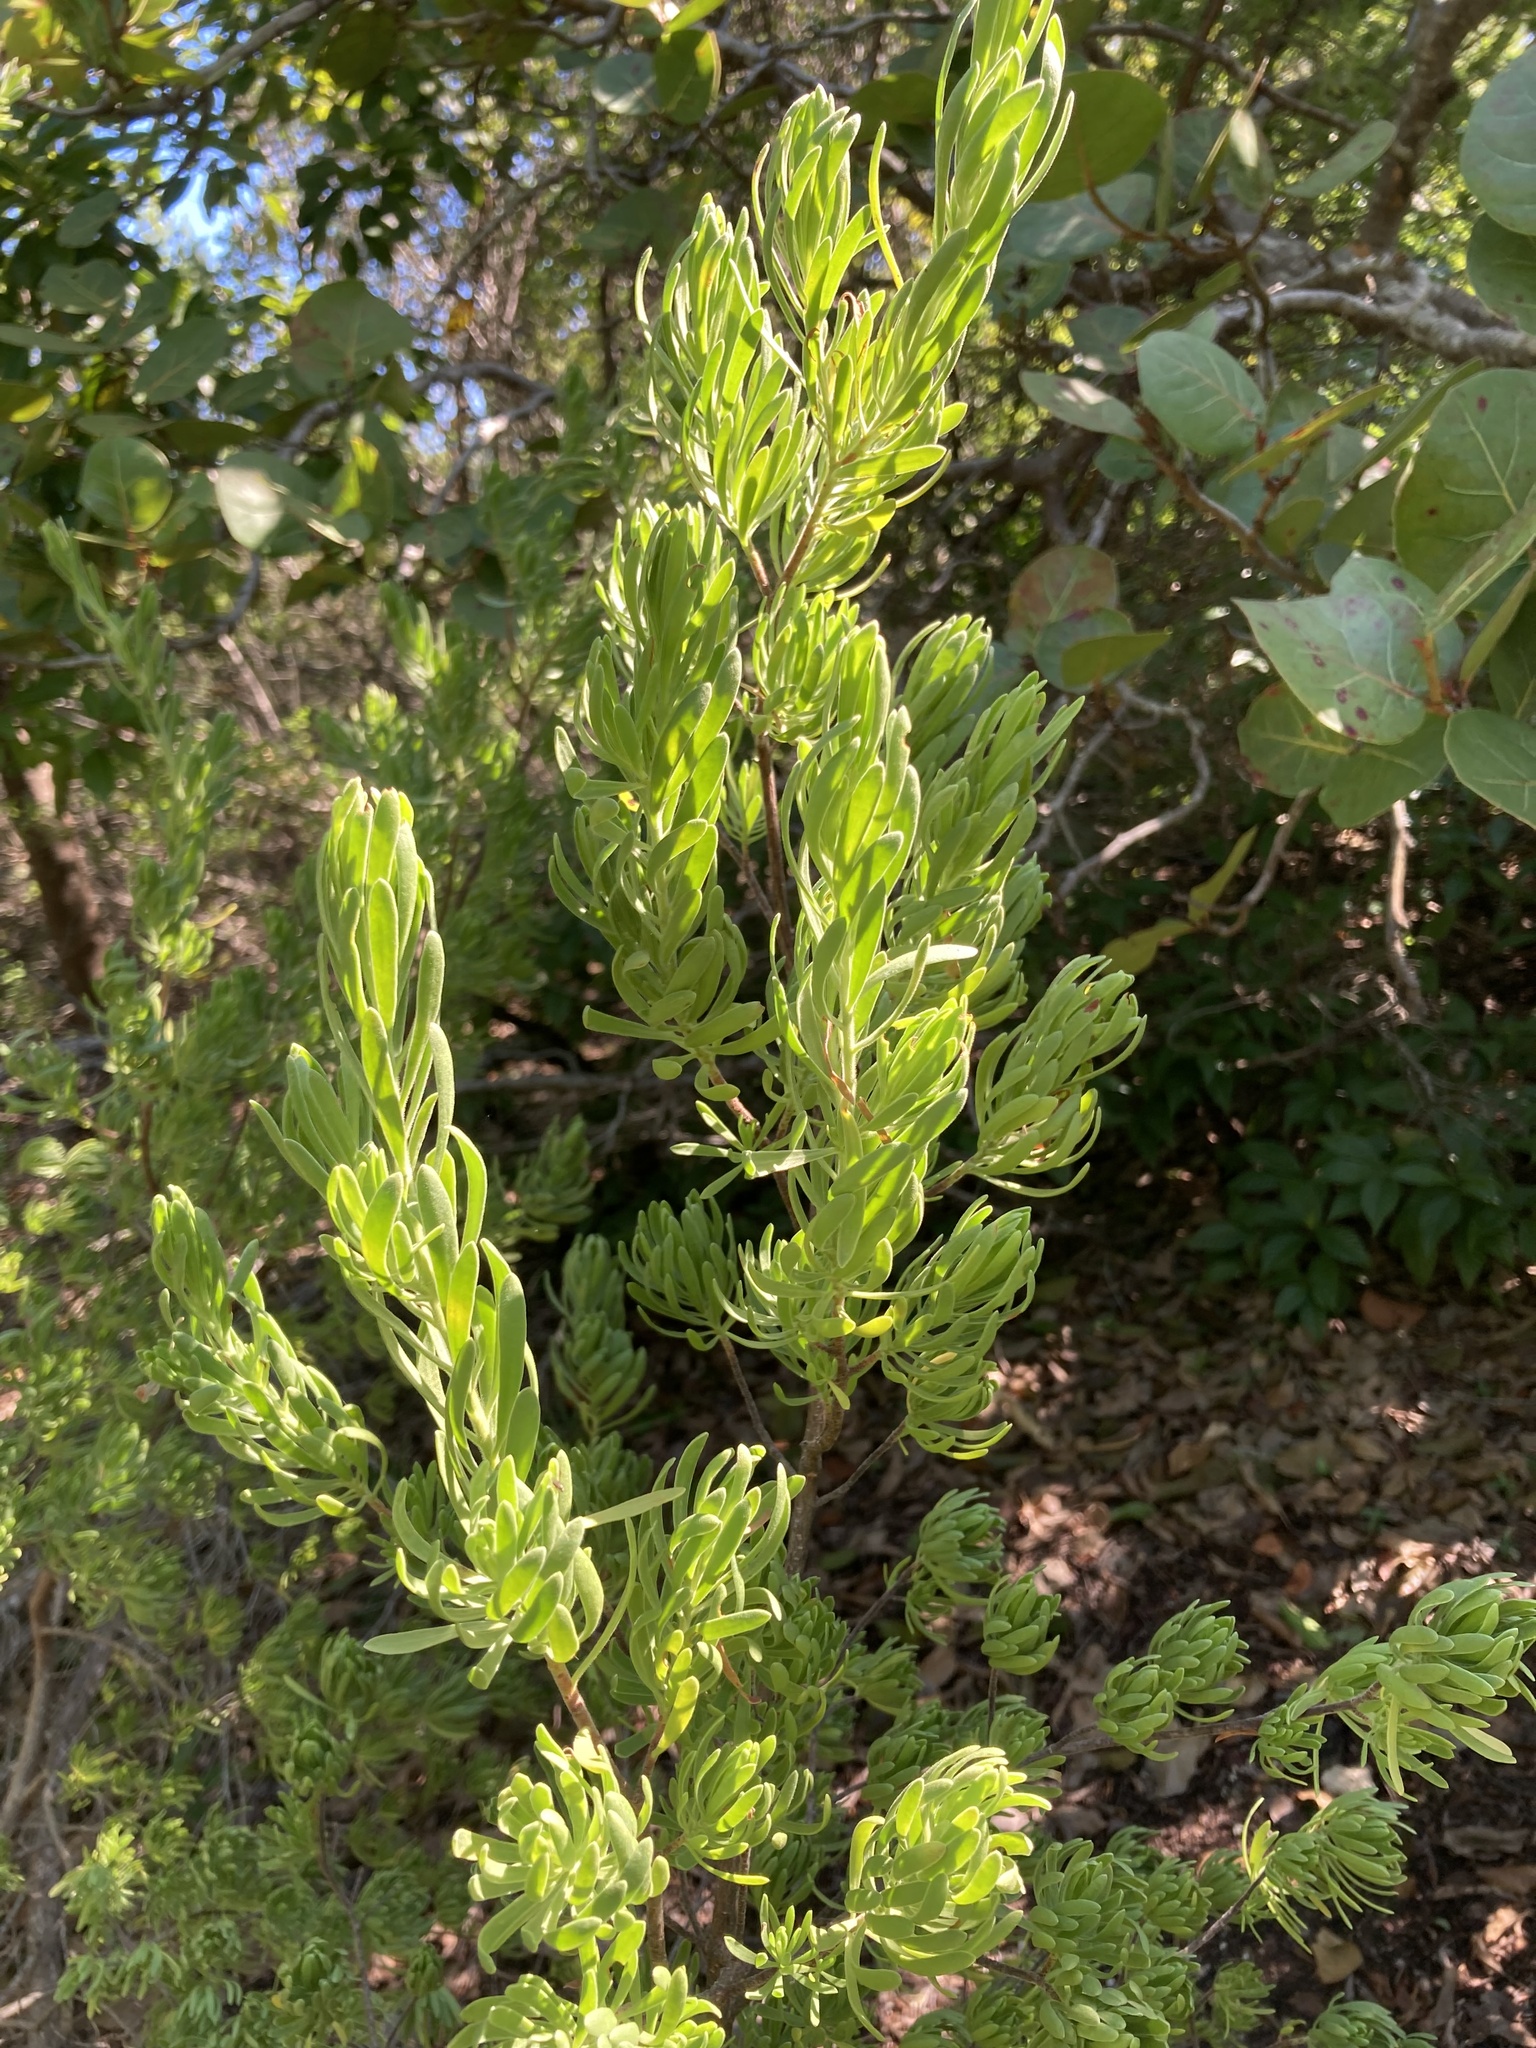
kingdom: Plantae
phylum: Tracheophyta
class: Magnoliopsida
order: Fabales
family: Surianaceae
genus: Suriana
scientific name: Suriana maritima
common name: Bay-cedar
